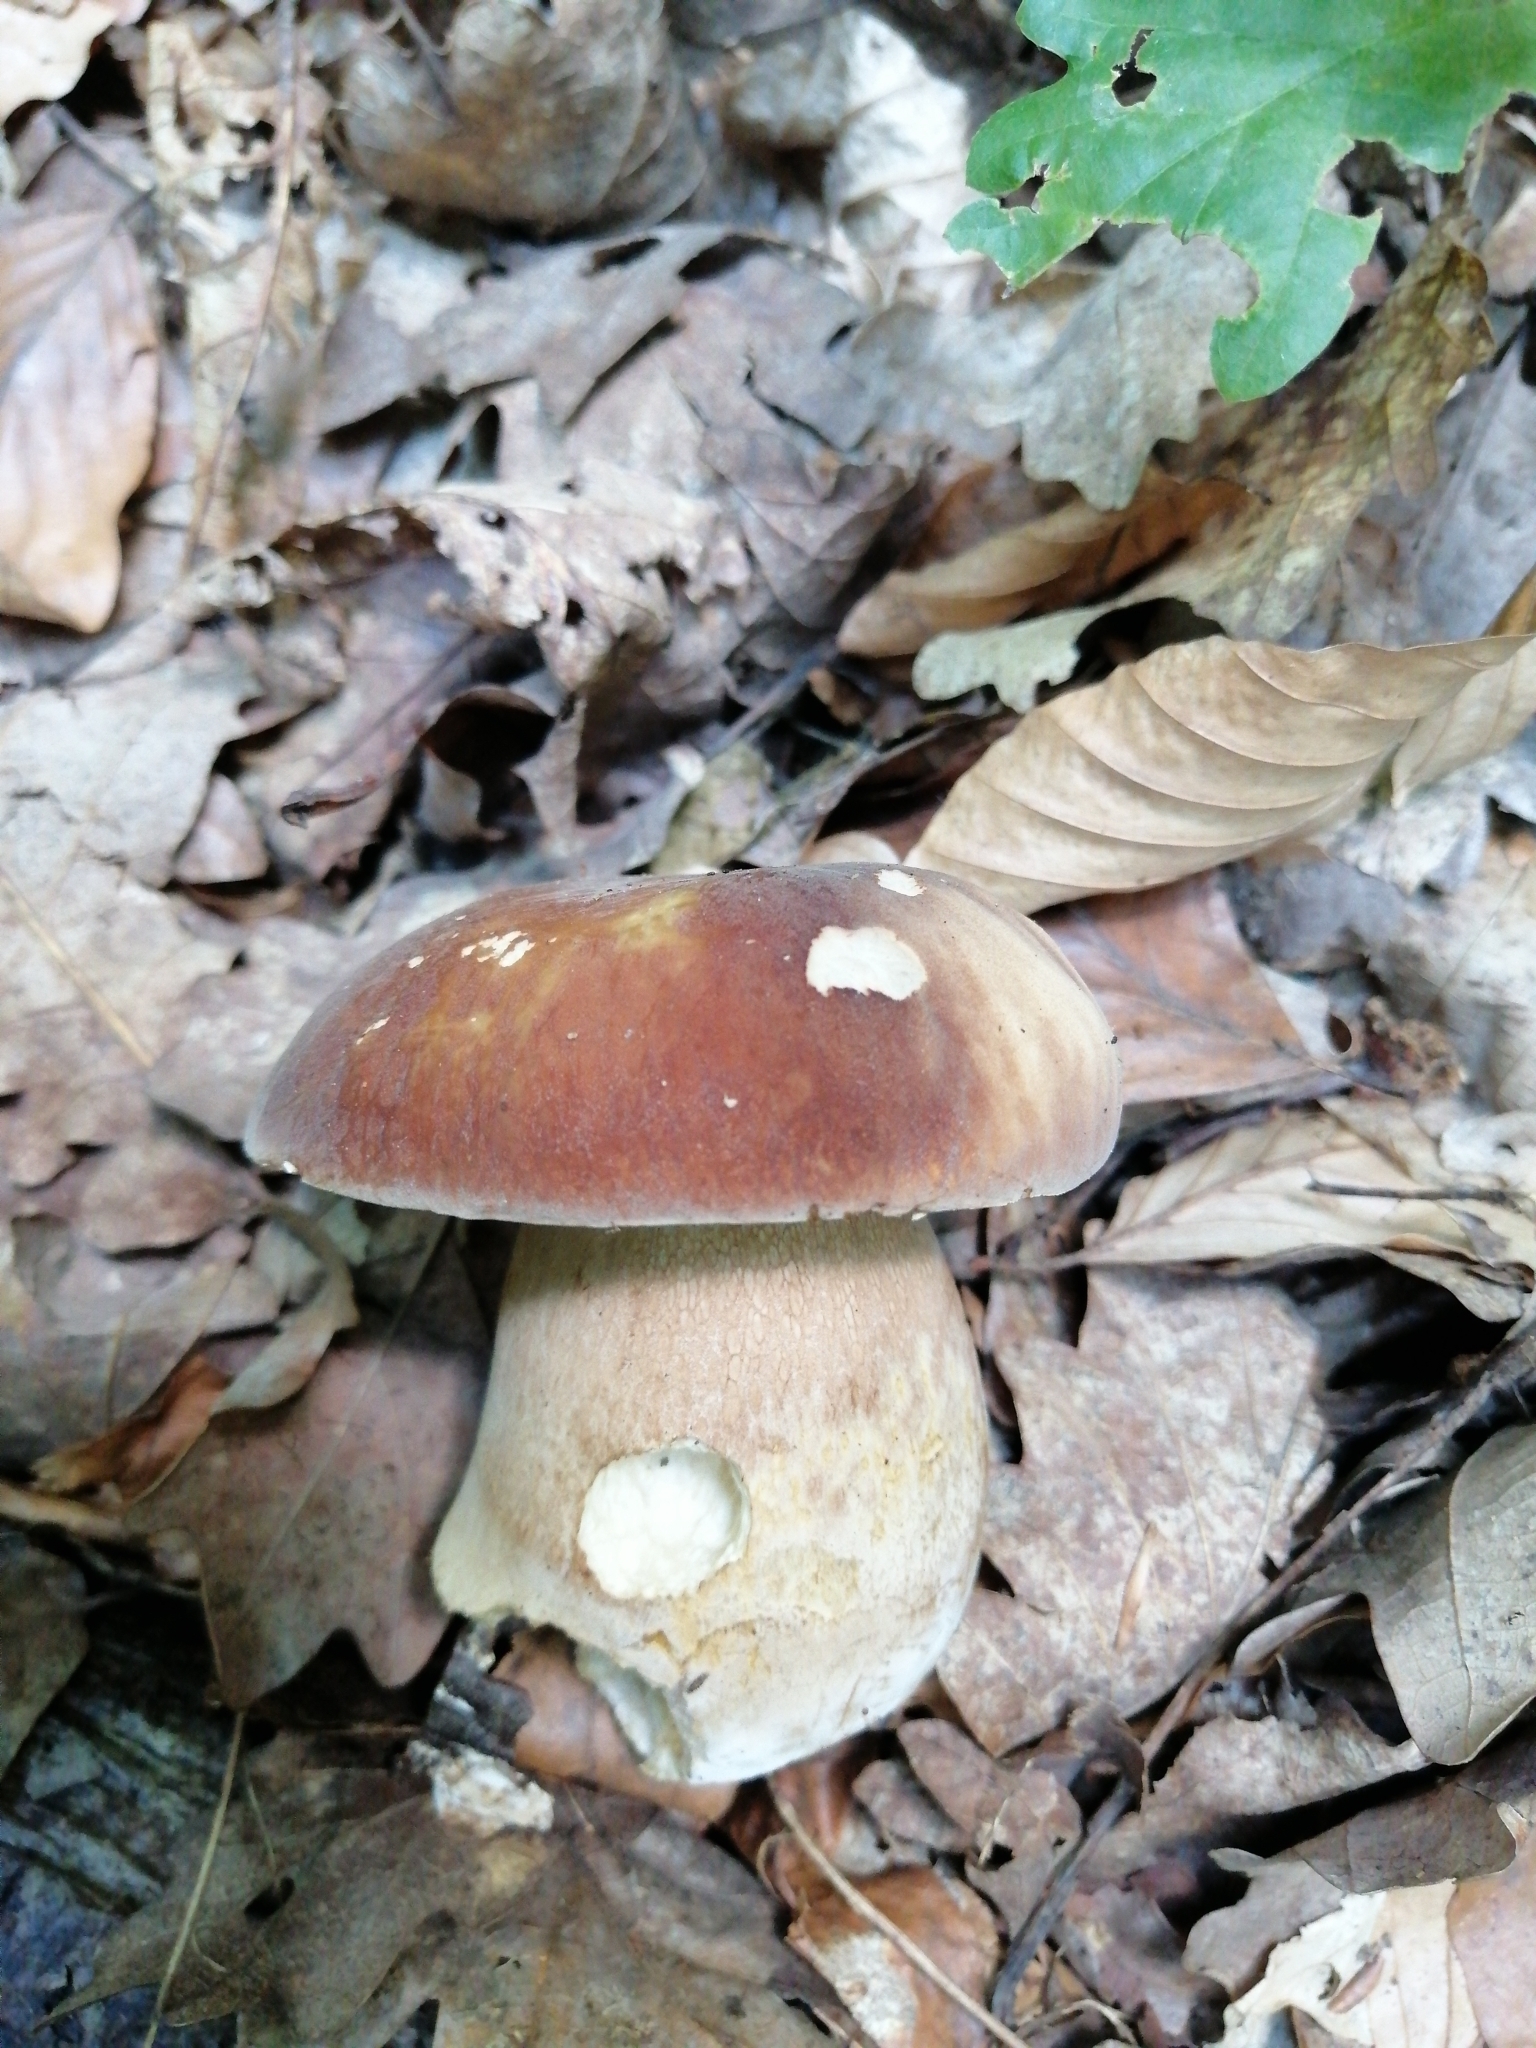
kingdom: Fungi
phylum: Basidiomycota
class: Agaricomycetes
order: Boletales
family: Boletaceae
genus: Boletus
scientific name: Boletus aereus
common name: Bronze bolete
